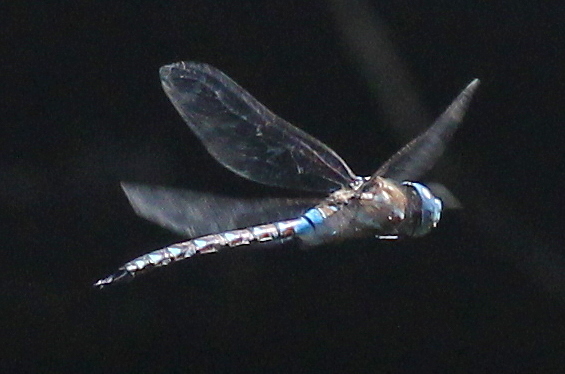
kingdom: Animalia
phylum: Arthropoda
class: Insecta
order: Odonata
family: Aeshnidae
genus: Rhionaeschna
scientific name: Rhionaeschna multicolor
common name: Blue-eyed darner
